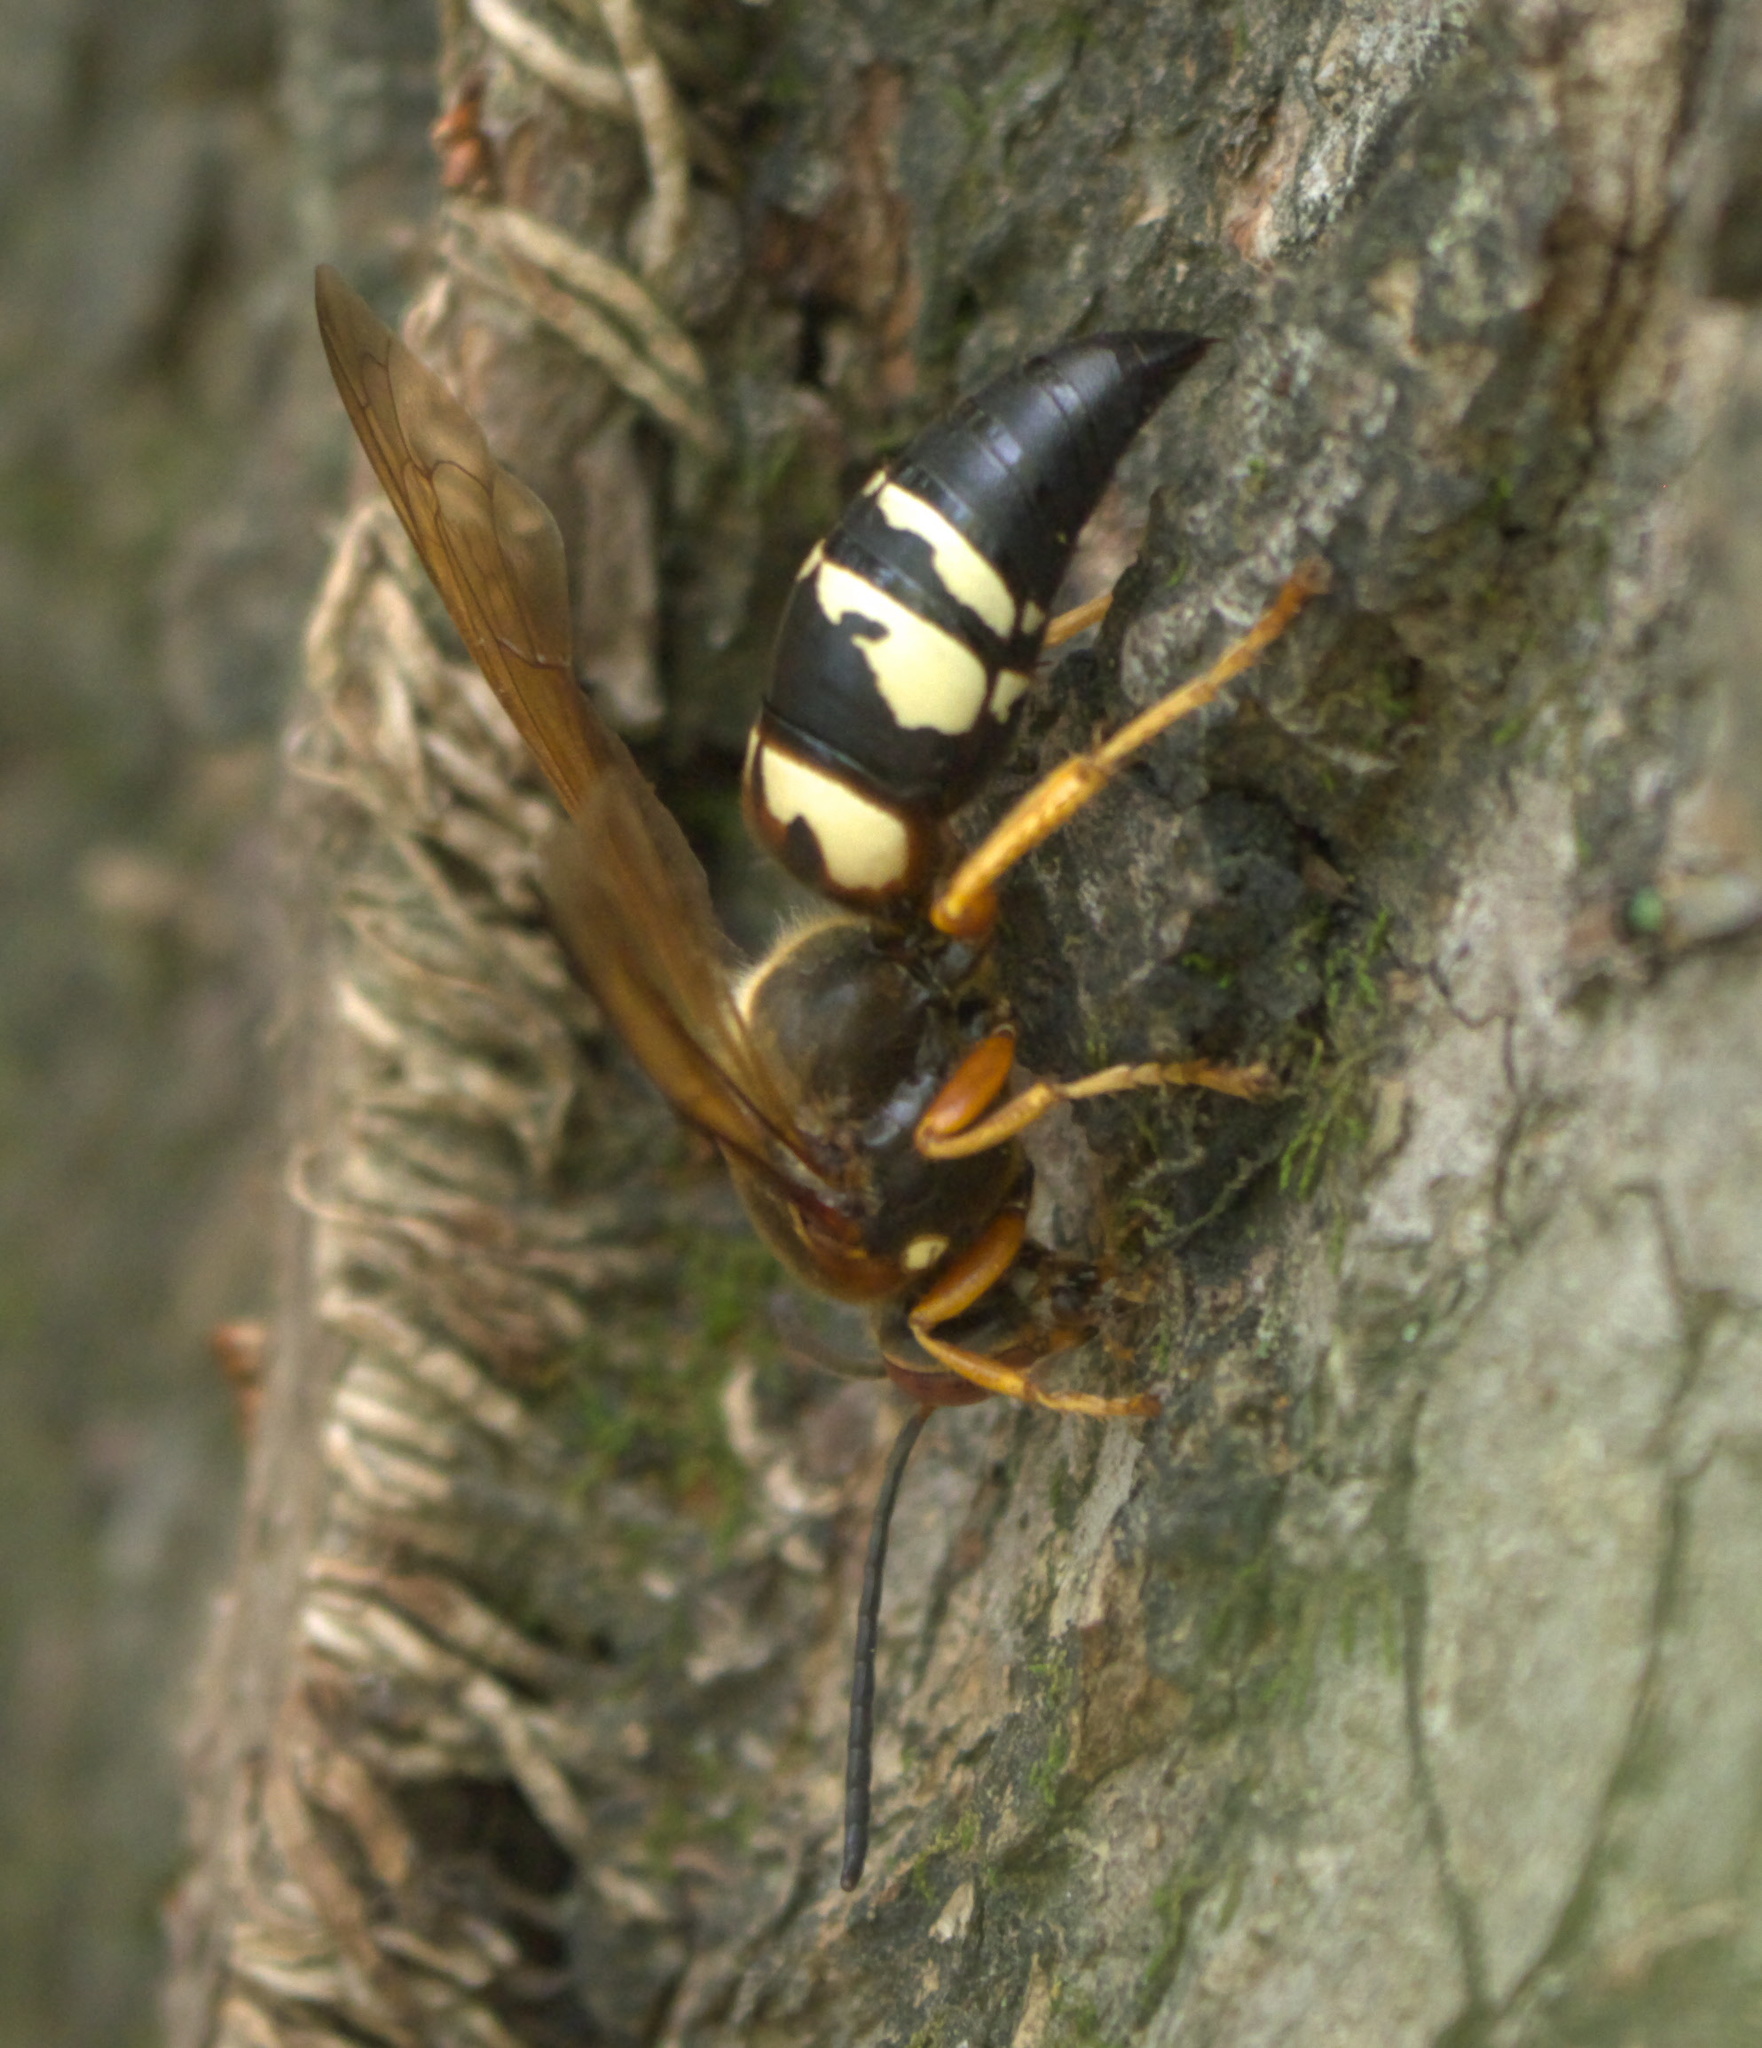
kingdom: Animalia
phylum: Arthropoda
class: Insecta
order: Hymenoptera
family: Crabronidae
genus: Sphecius
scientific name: Sphecius speciosus
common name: Cicada killer
